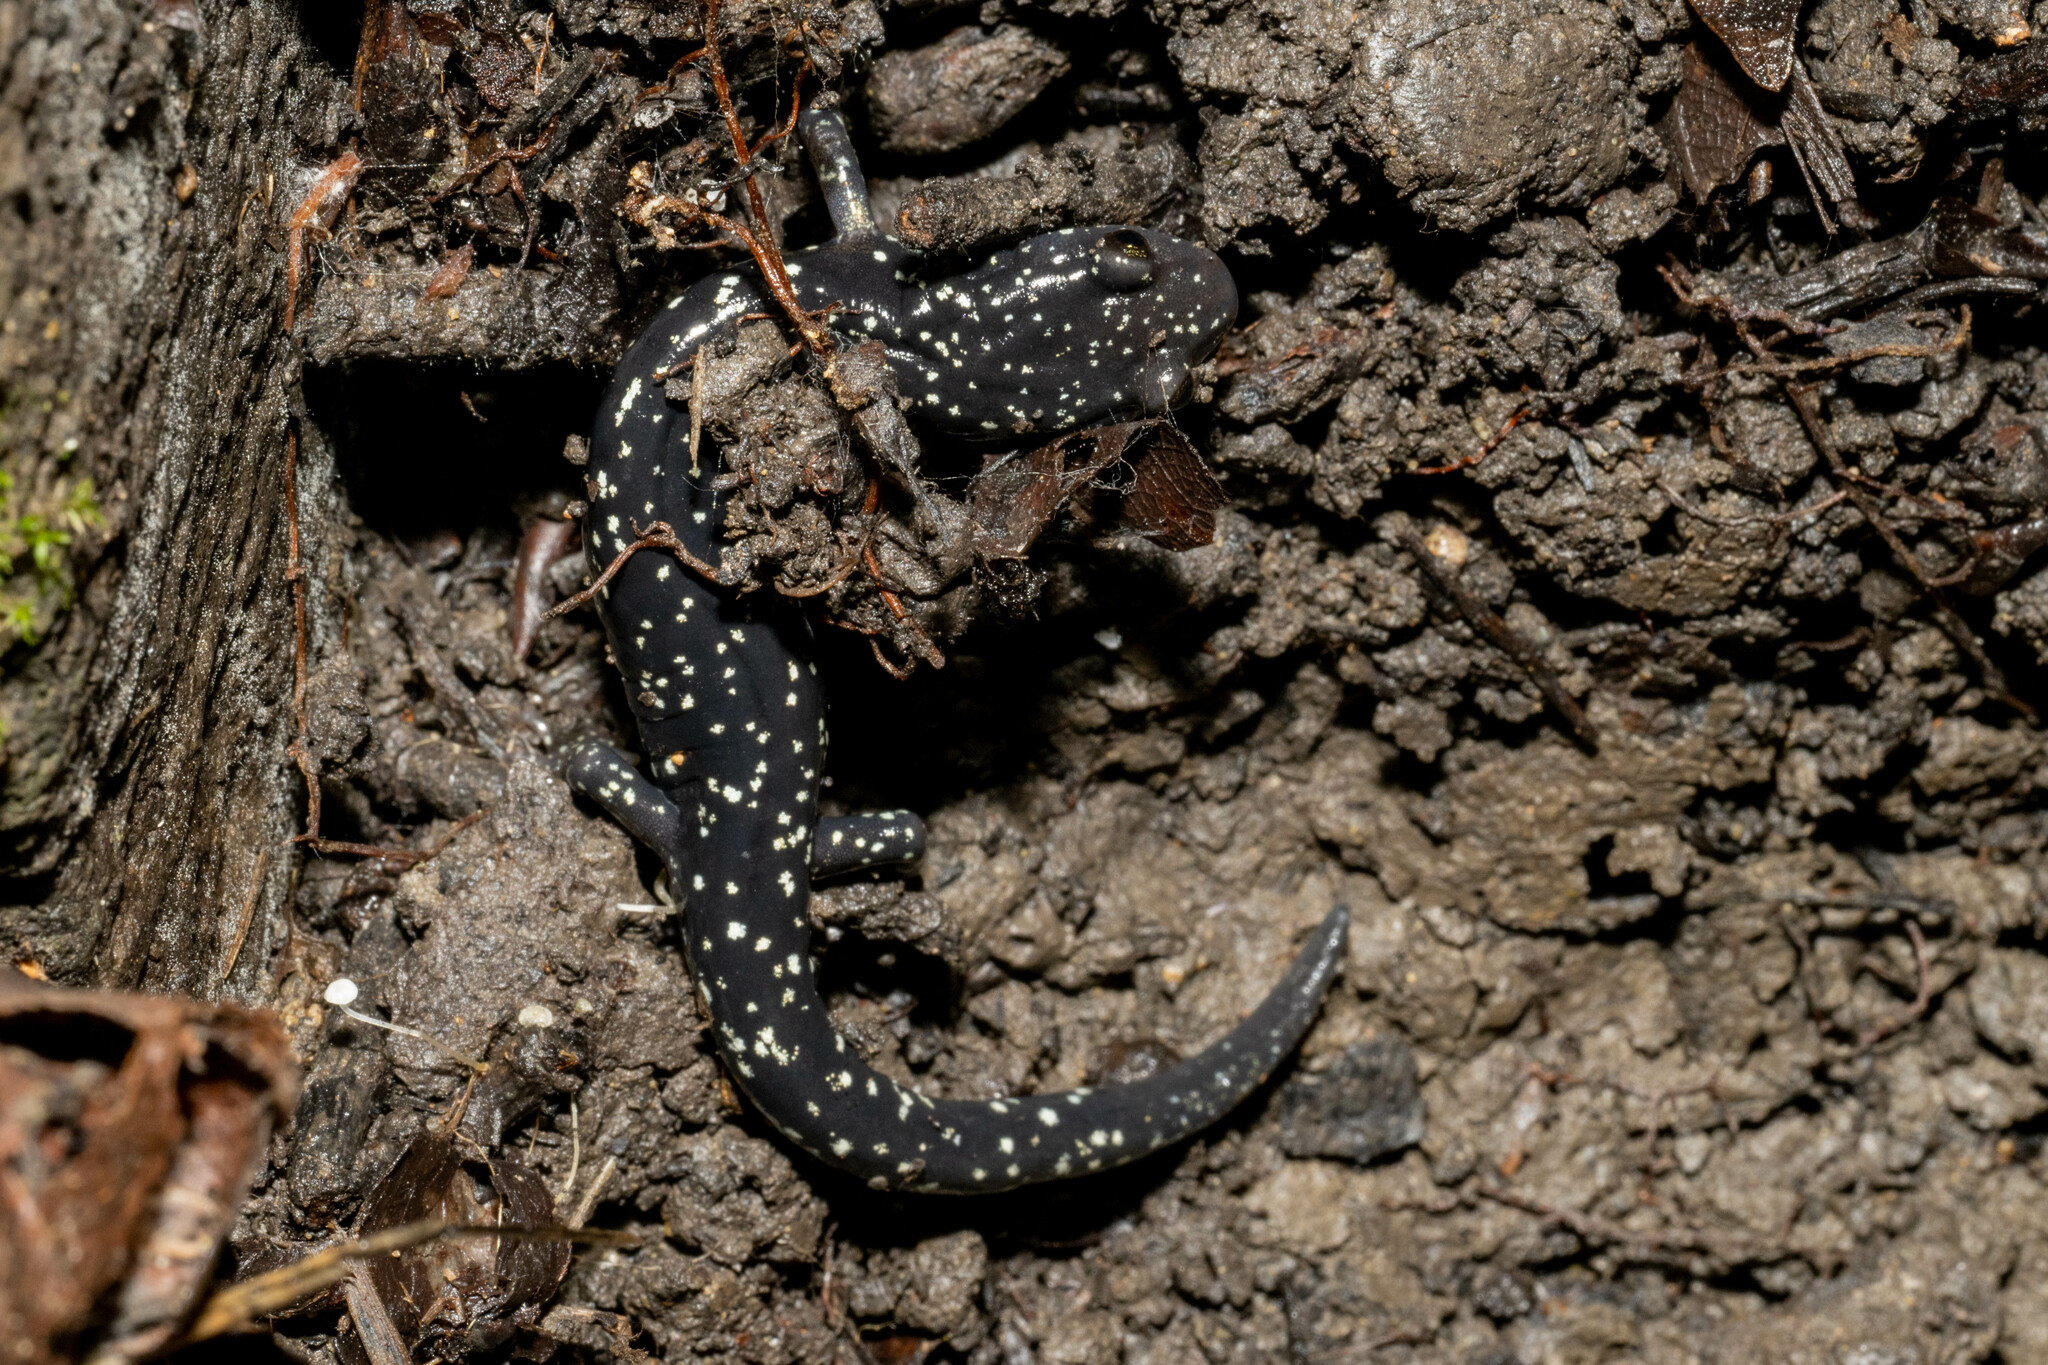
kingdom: Animalia
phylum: Chordata
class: Amphibia
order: Caudata
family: Plethodontidae
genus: Aneides
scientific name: Aneides flavipunctatus
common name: Black salamander
